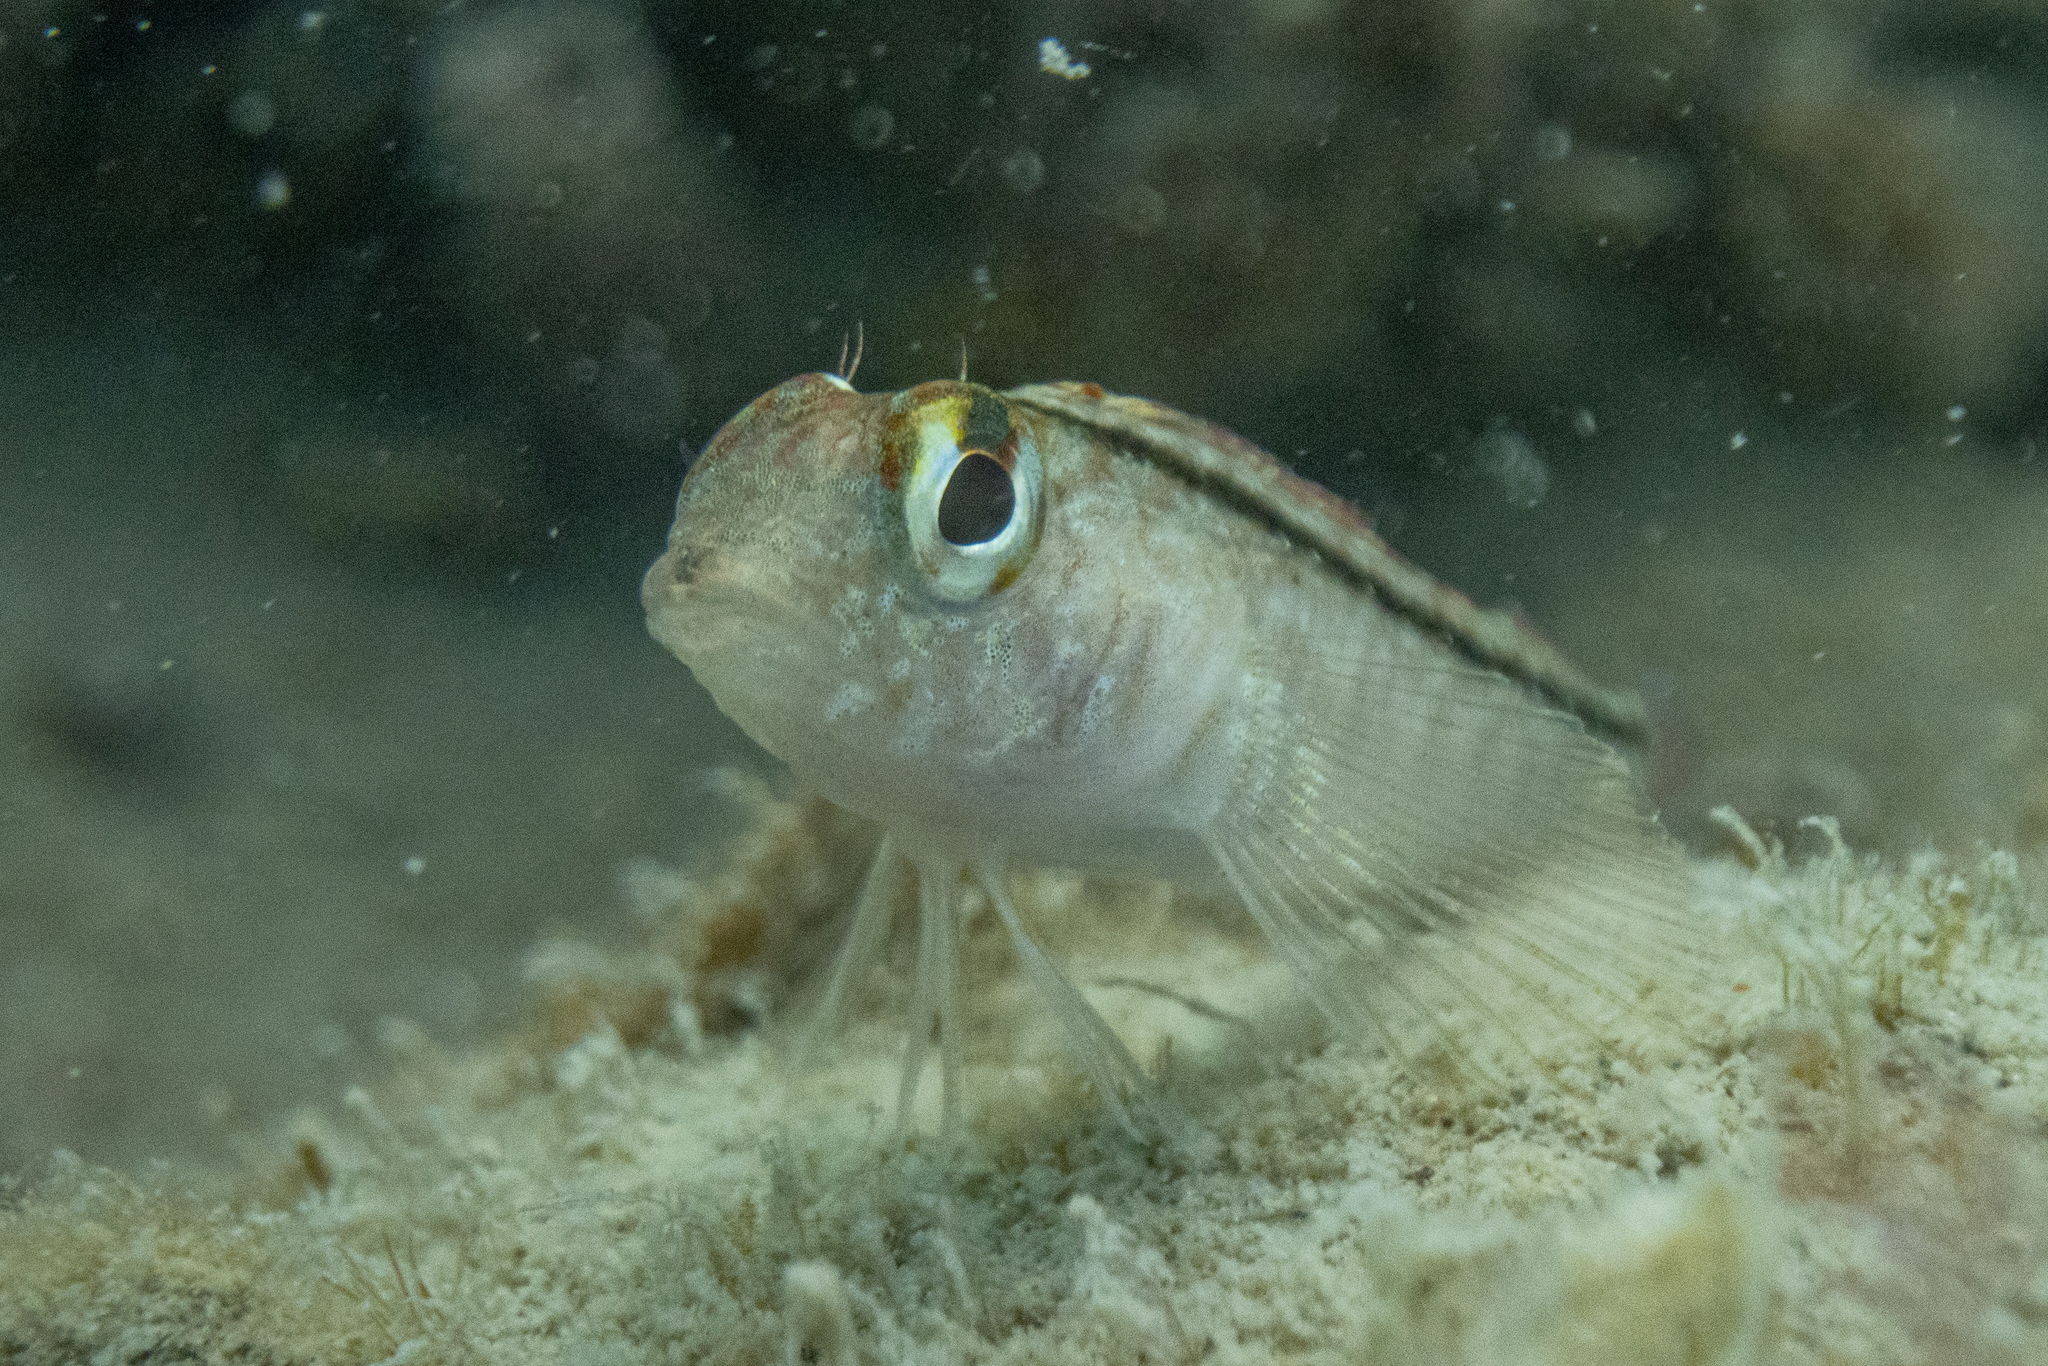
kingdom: Animalia
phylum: Chordata
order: Perciformes
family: Tripterygiidae
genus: Forsterygion
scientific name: Forsterygion lapillum
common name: Common triplefin
